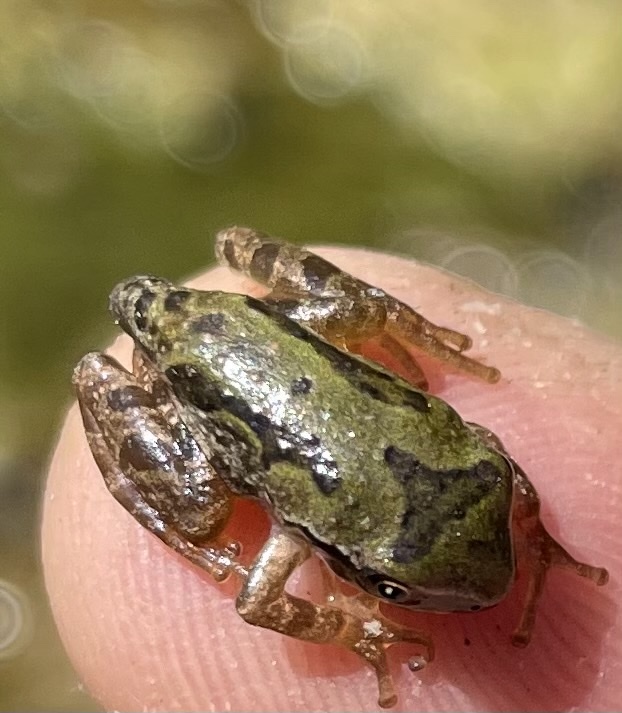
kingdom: Animalia
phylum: Chordata
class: Amphibia
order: Anura
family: Hylidae
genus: Pseudacris
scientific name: Pseudacris regilla
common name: Pacific chorus frog
